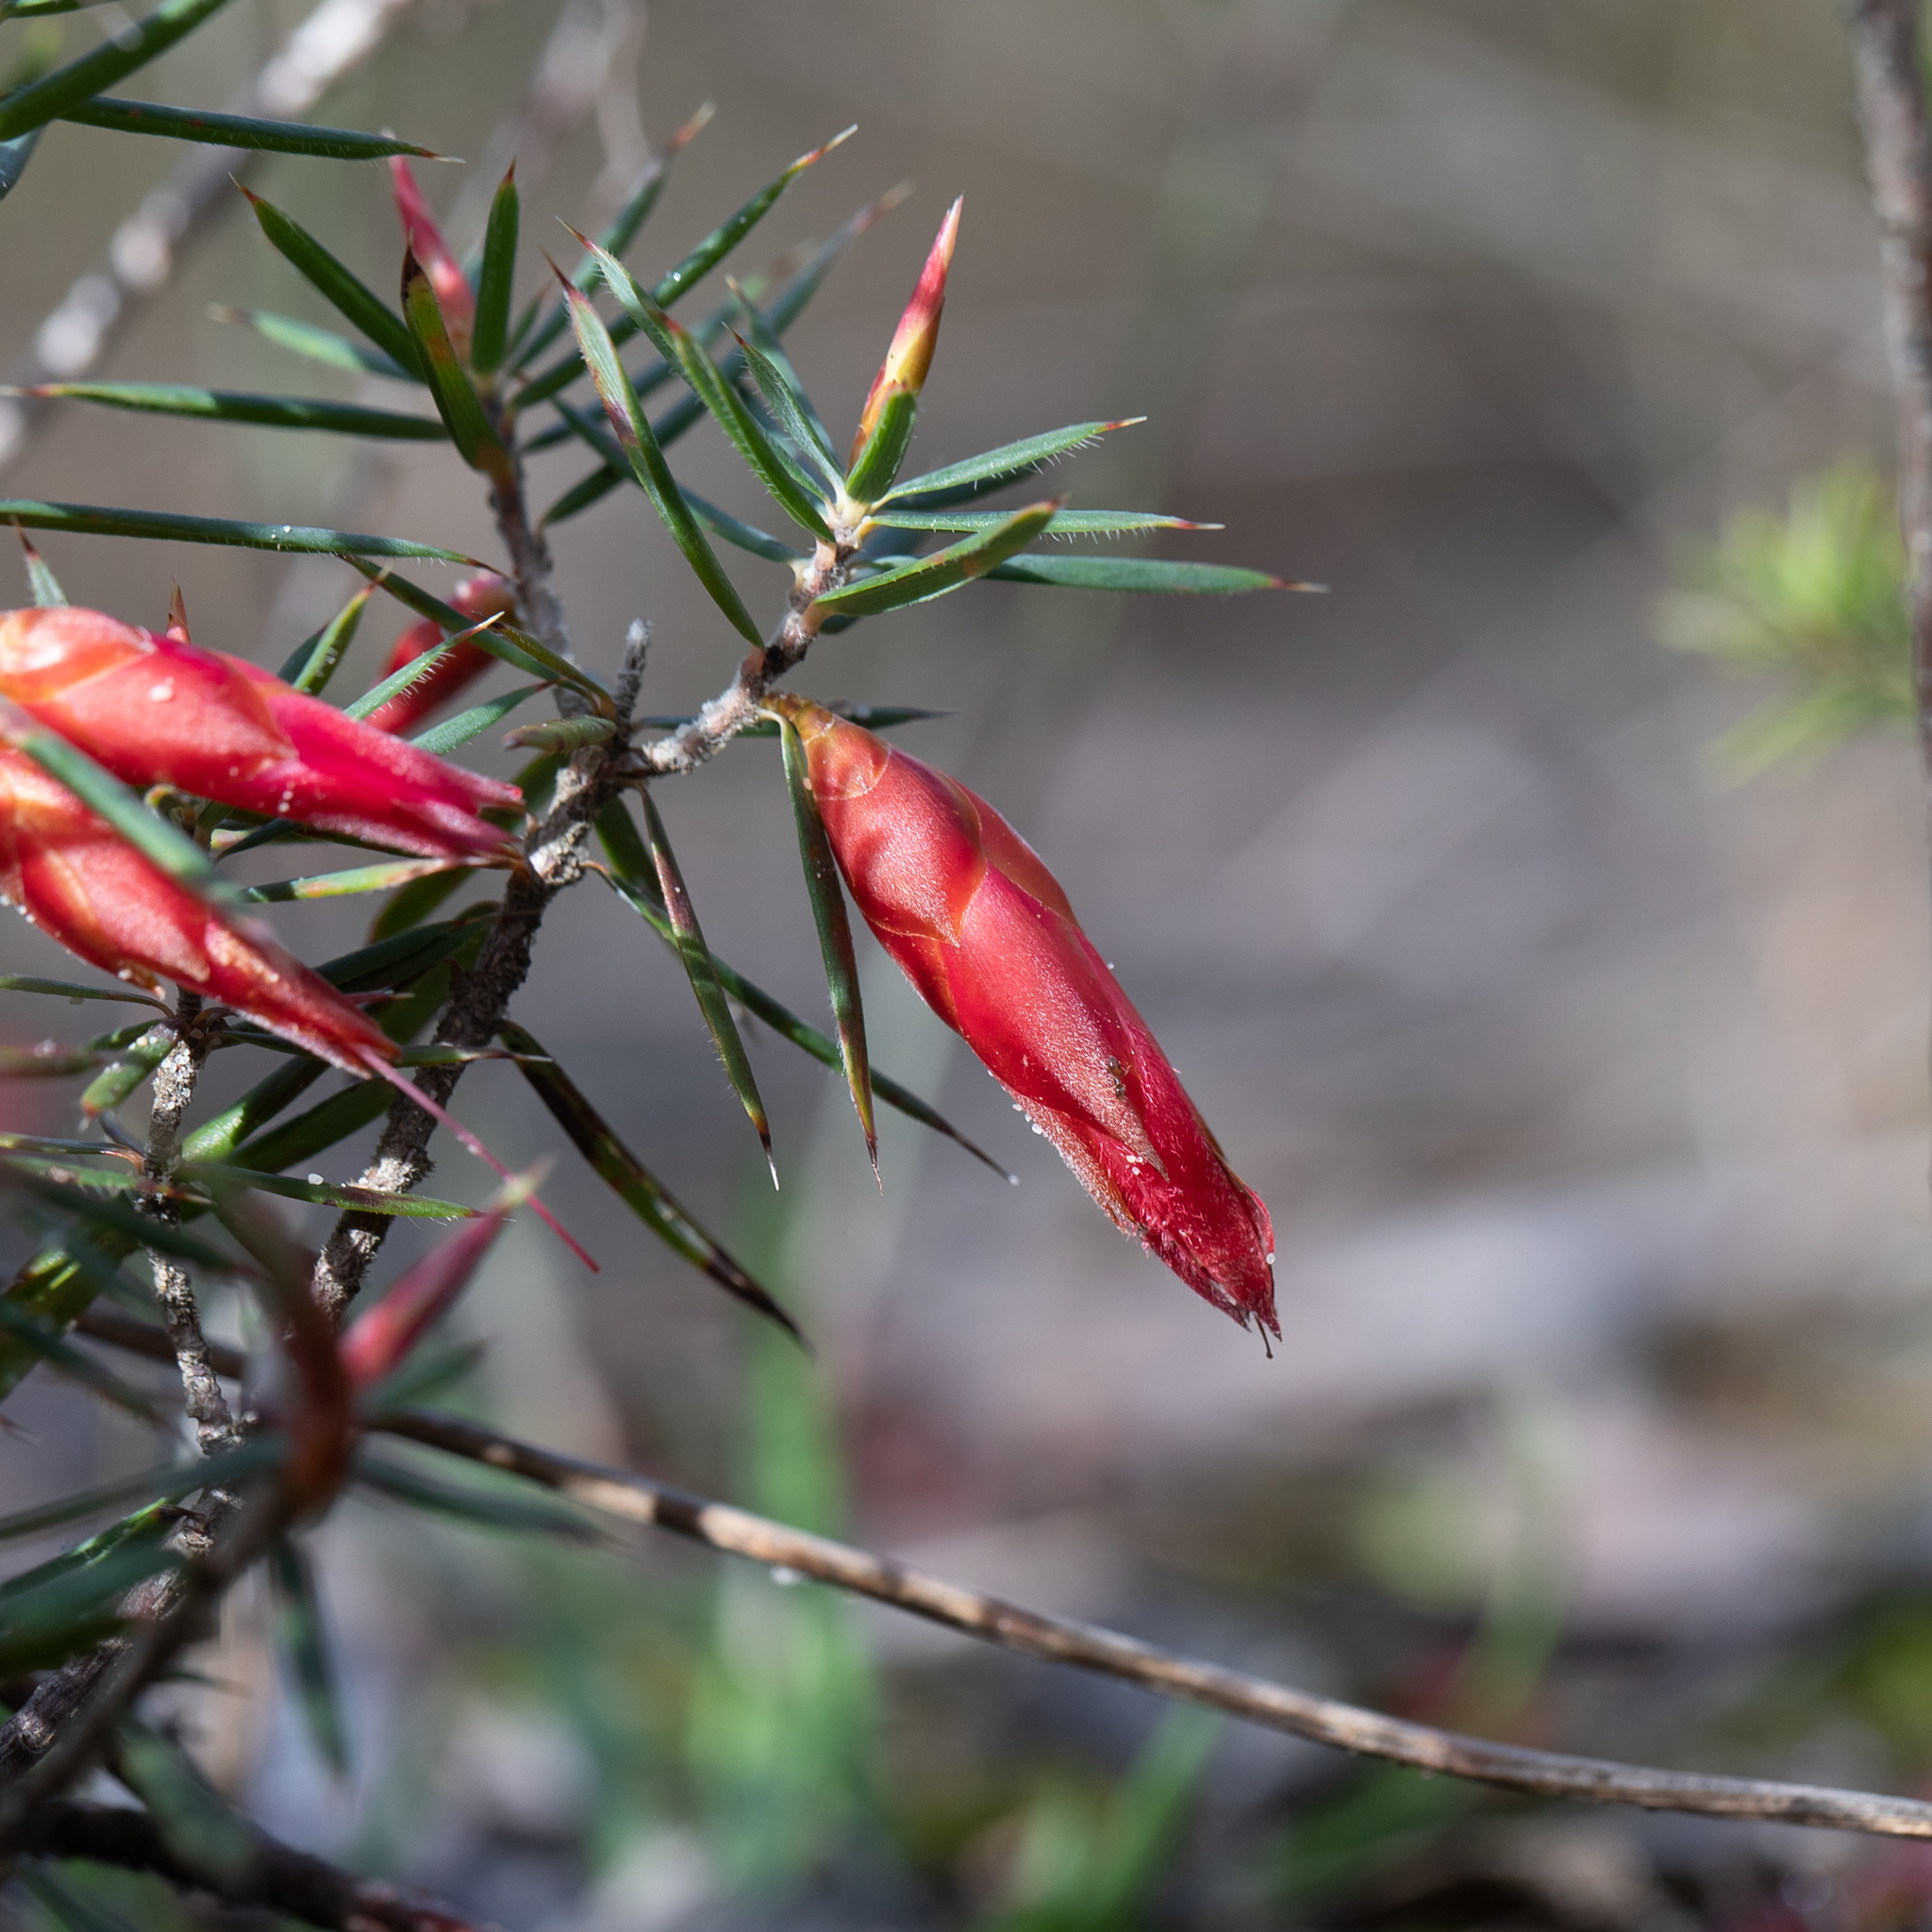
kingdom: Plantae
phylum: Tracheophyta
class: Magnoliopsida
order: Ericales
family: Ericaceae
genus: Stenanthera
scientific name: Stenanthera conostephioides
